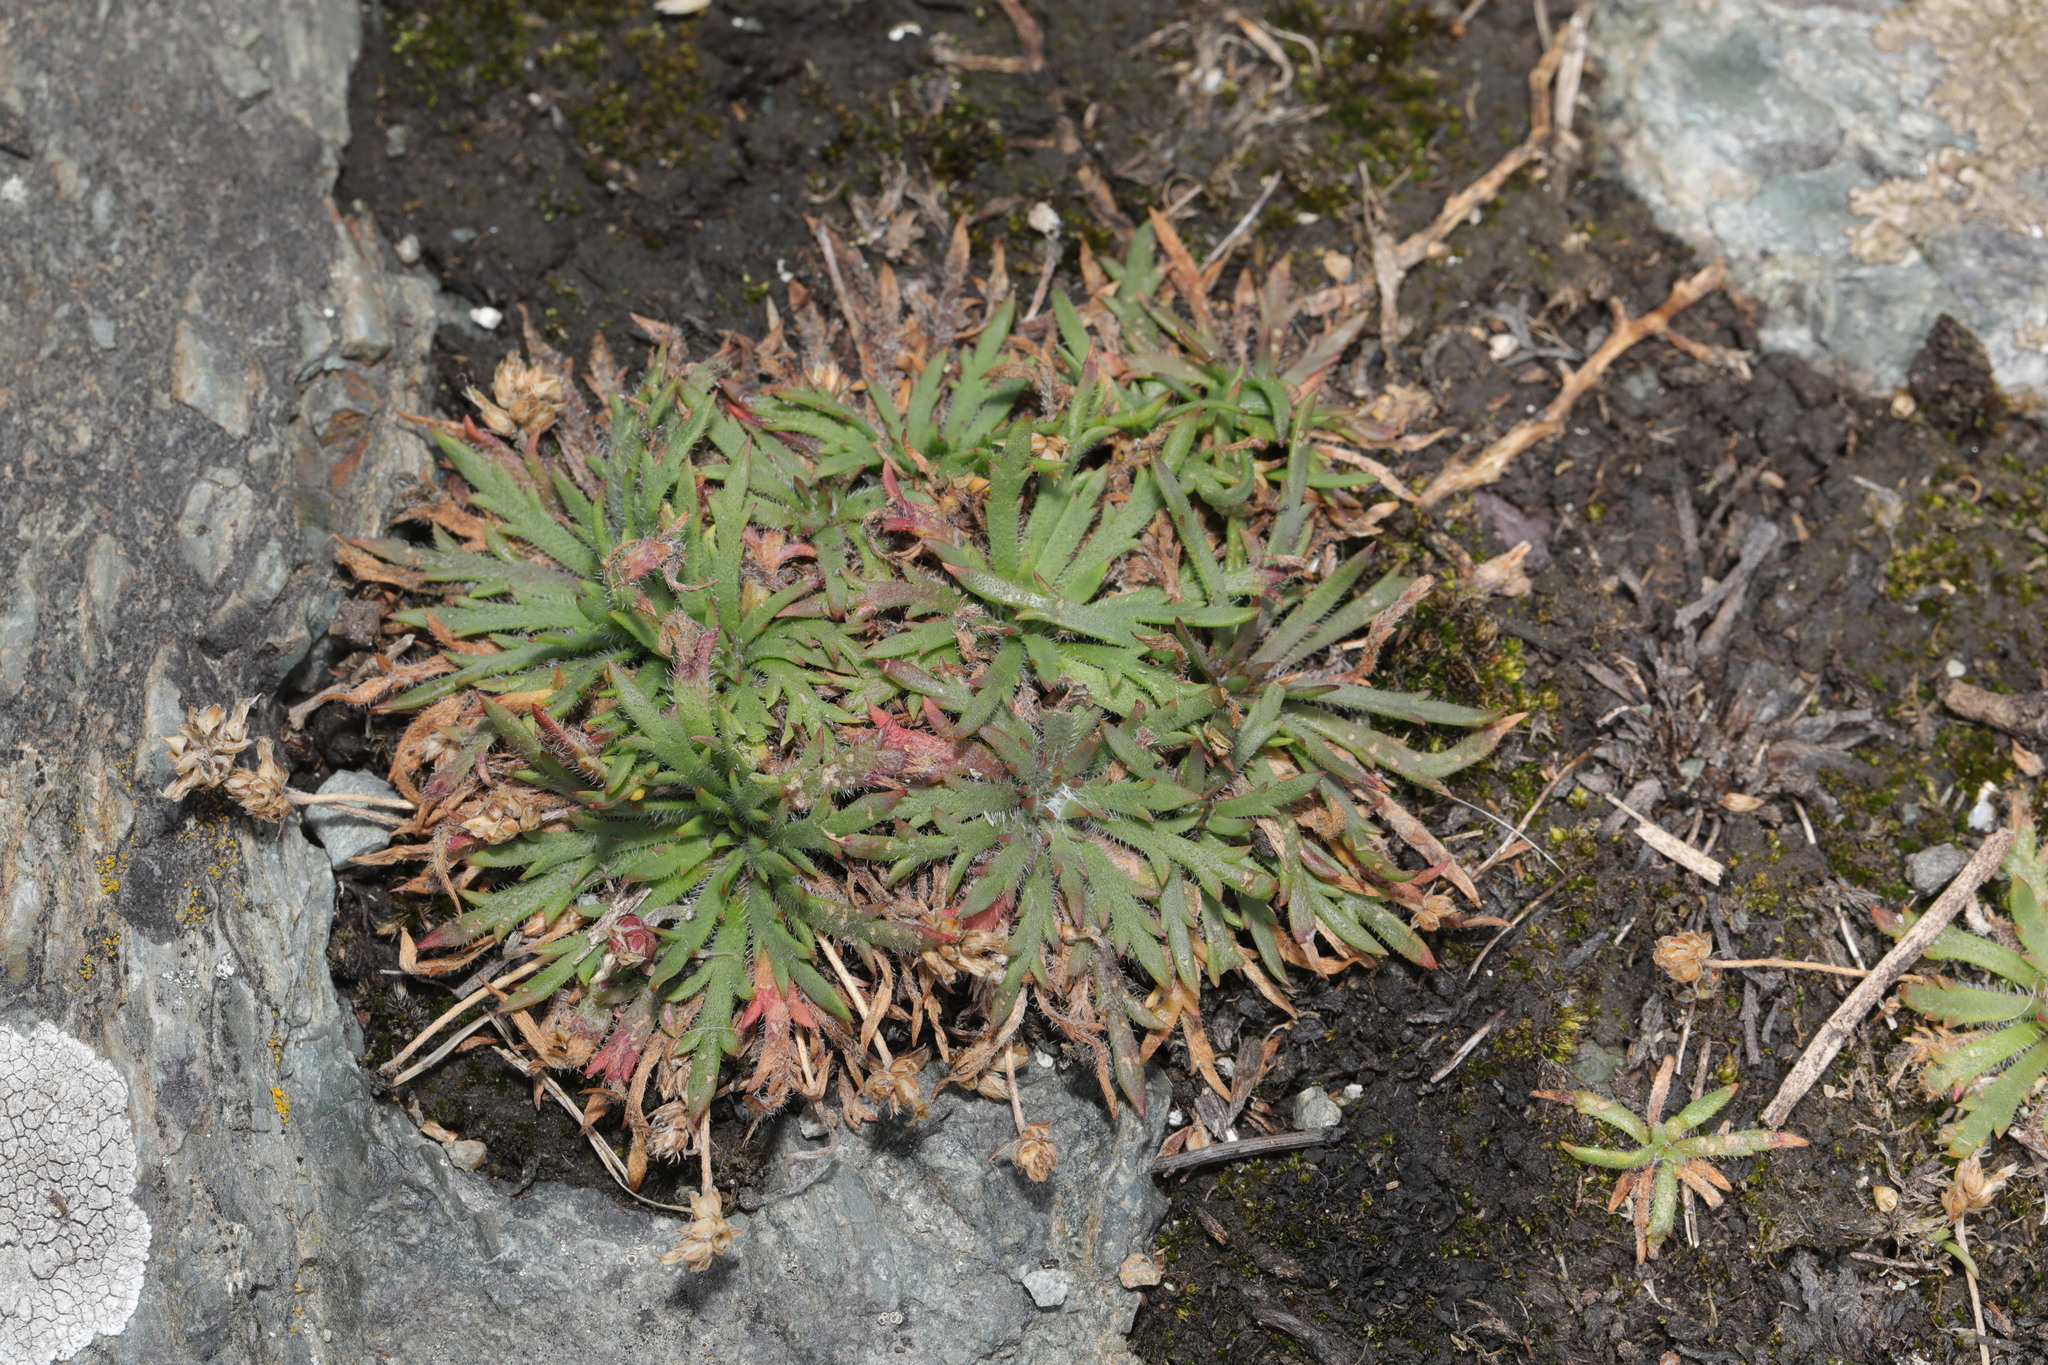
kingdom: Plantae
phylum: Tracheophyta
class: Magnoliopsida
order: Lamiales
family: Plantaginaceae
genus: Plantago
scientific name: Plantago coronopus
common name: Buck's-horn plantain
